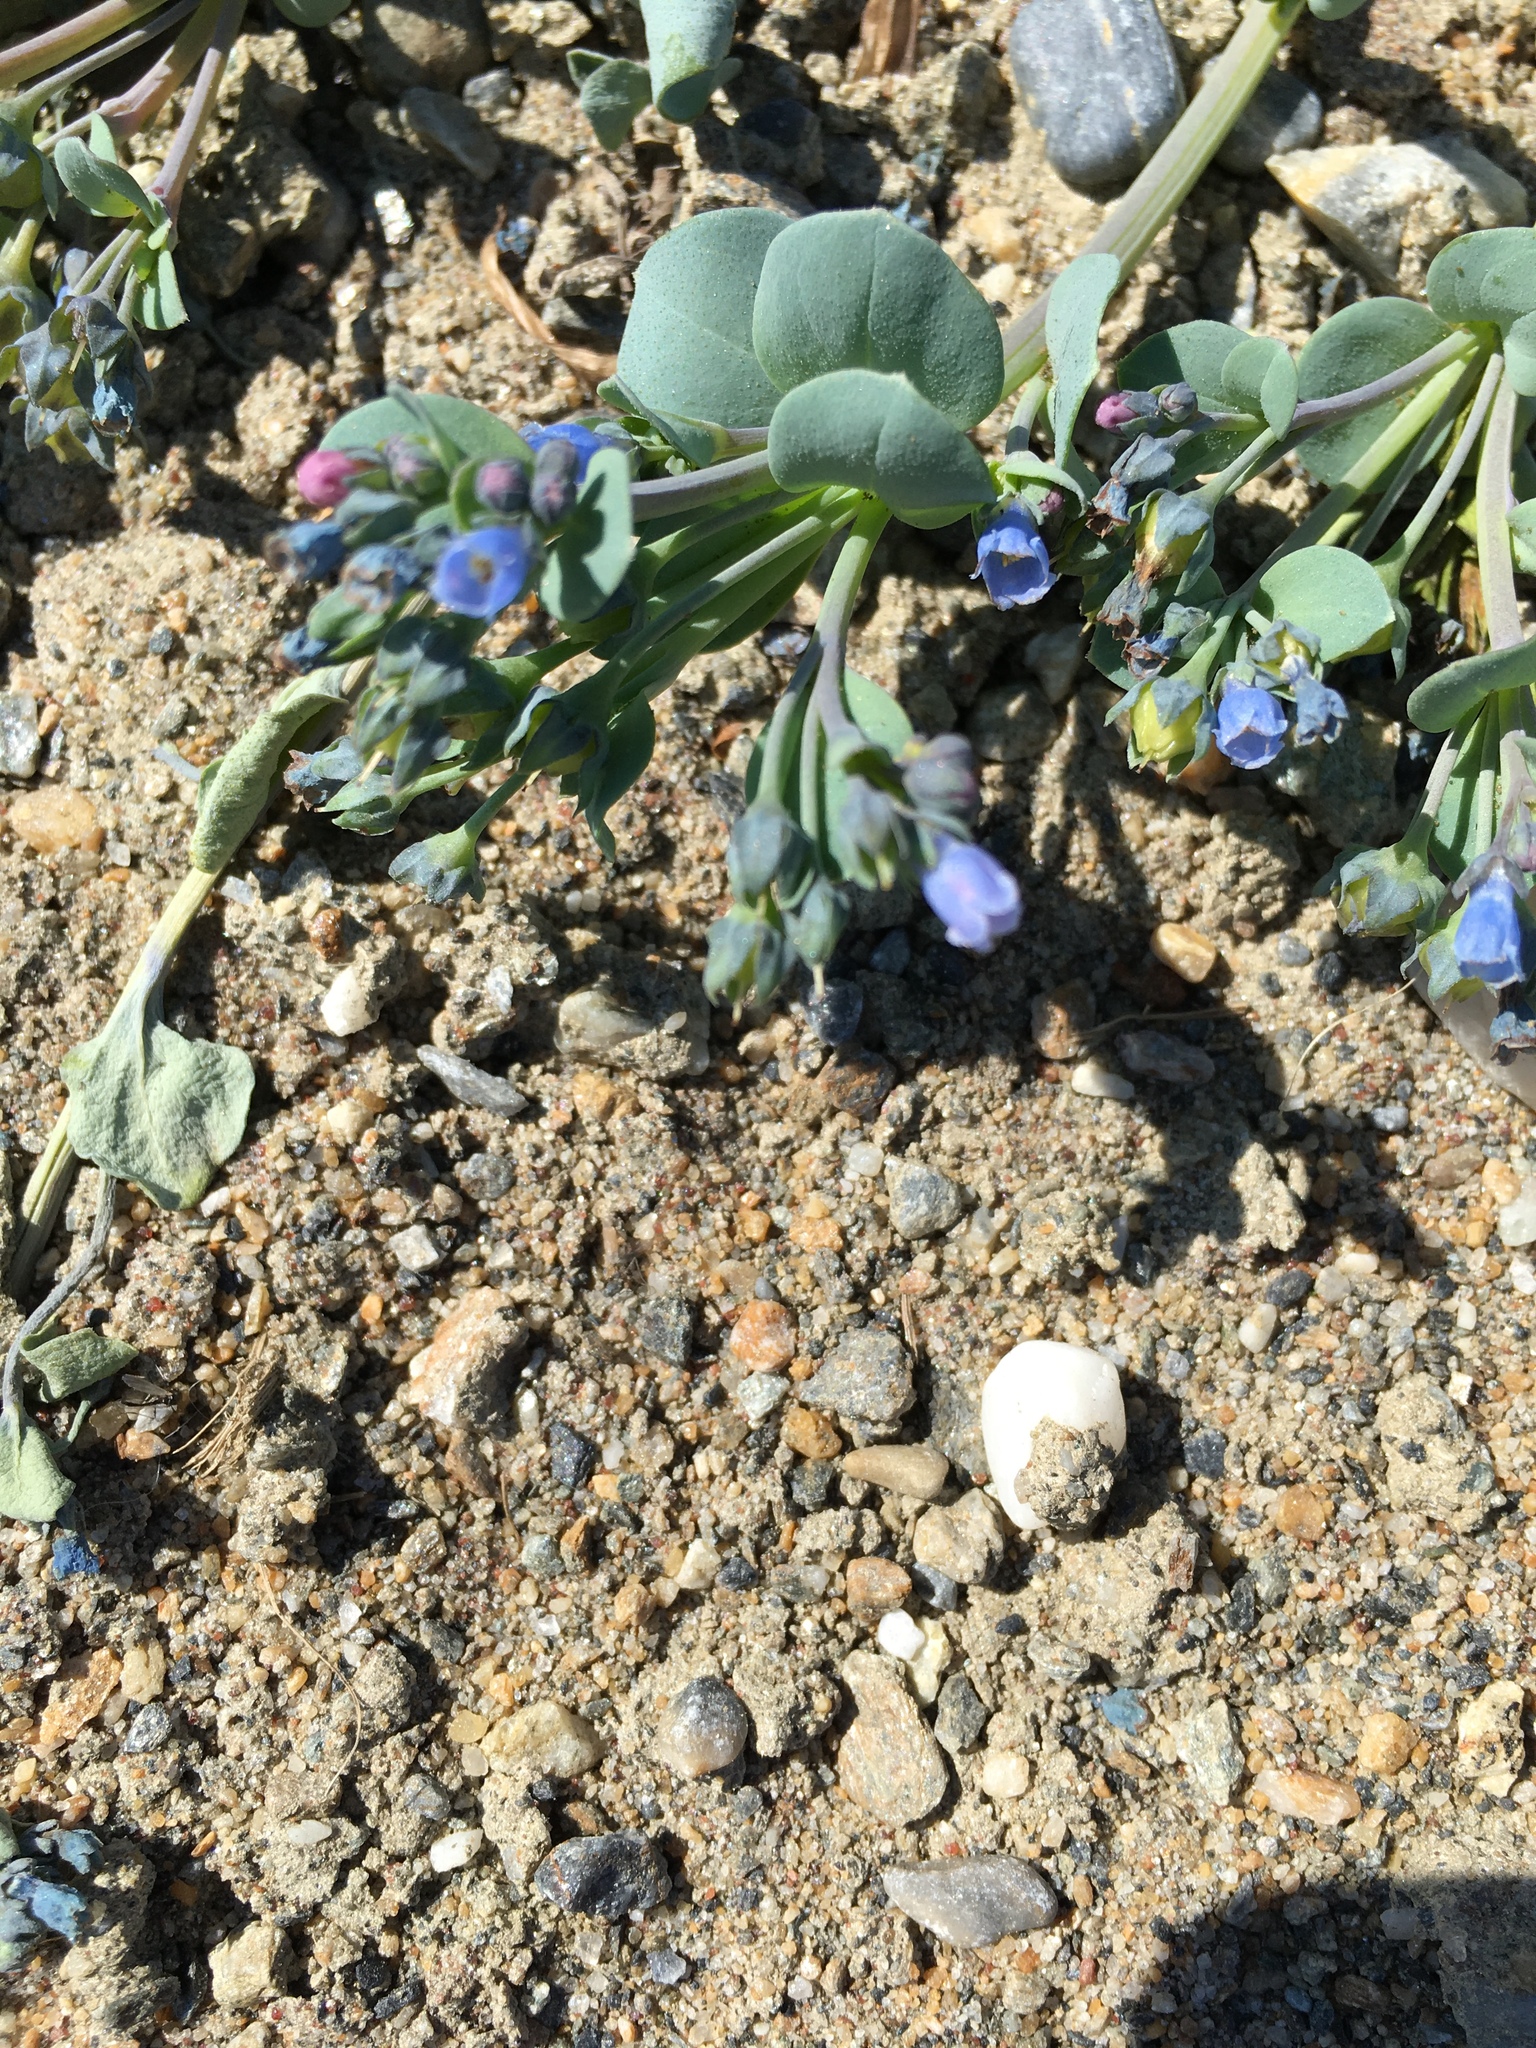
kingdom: Plantae
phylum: Tracheophyta
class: Magnoliopsida
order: Boraginales
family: Boraginaceae
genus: Mertensia
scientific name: Mertensia maritima
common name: Oysterplant
